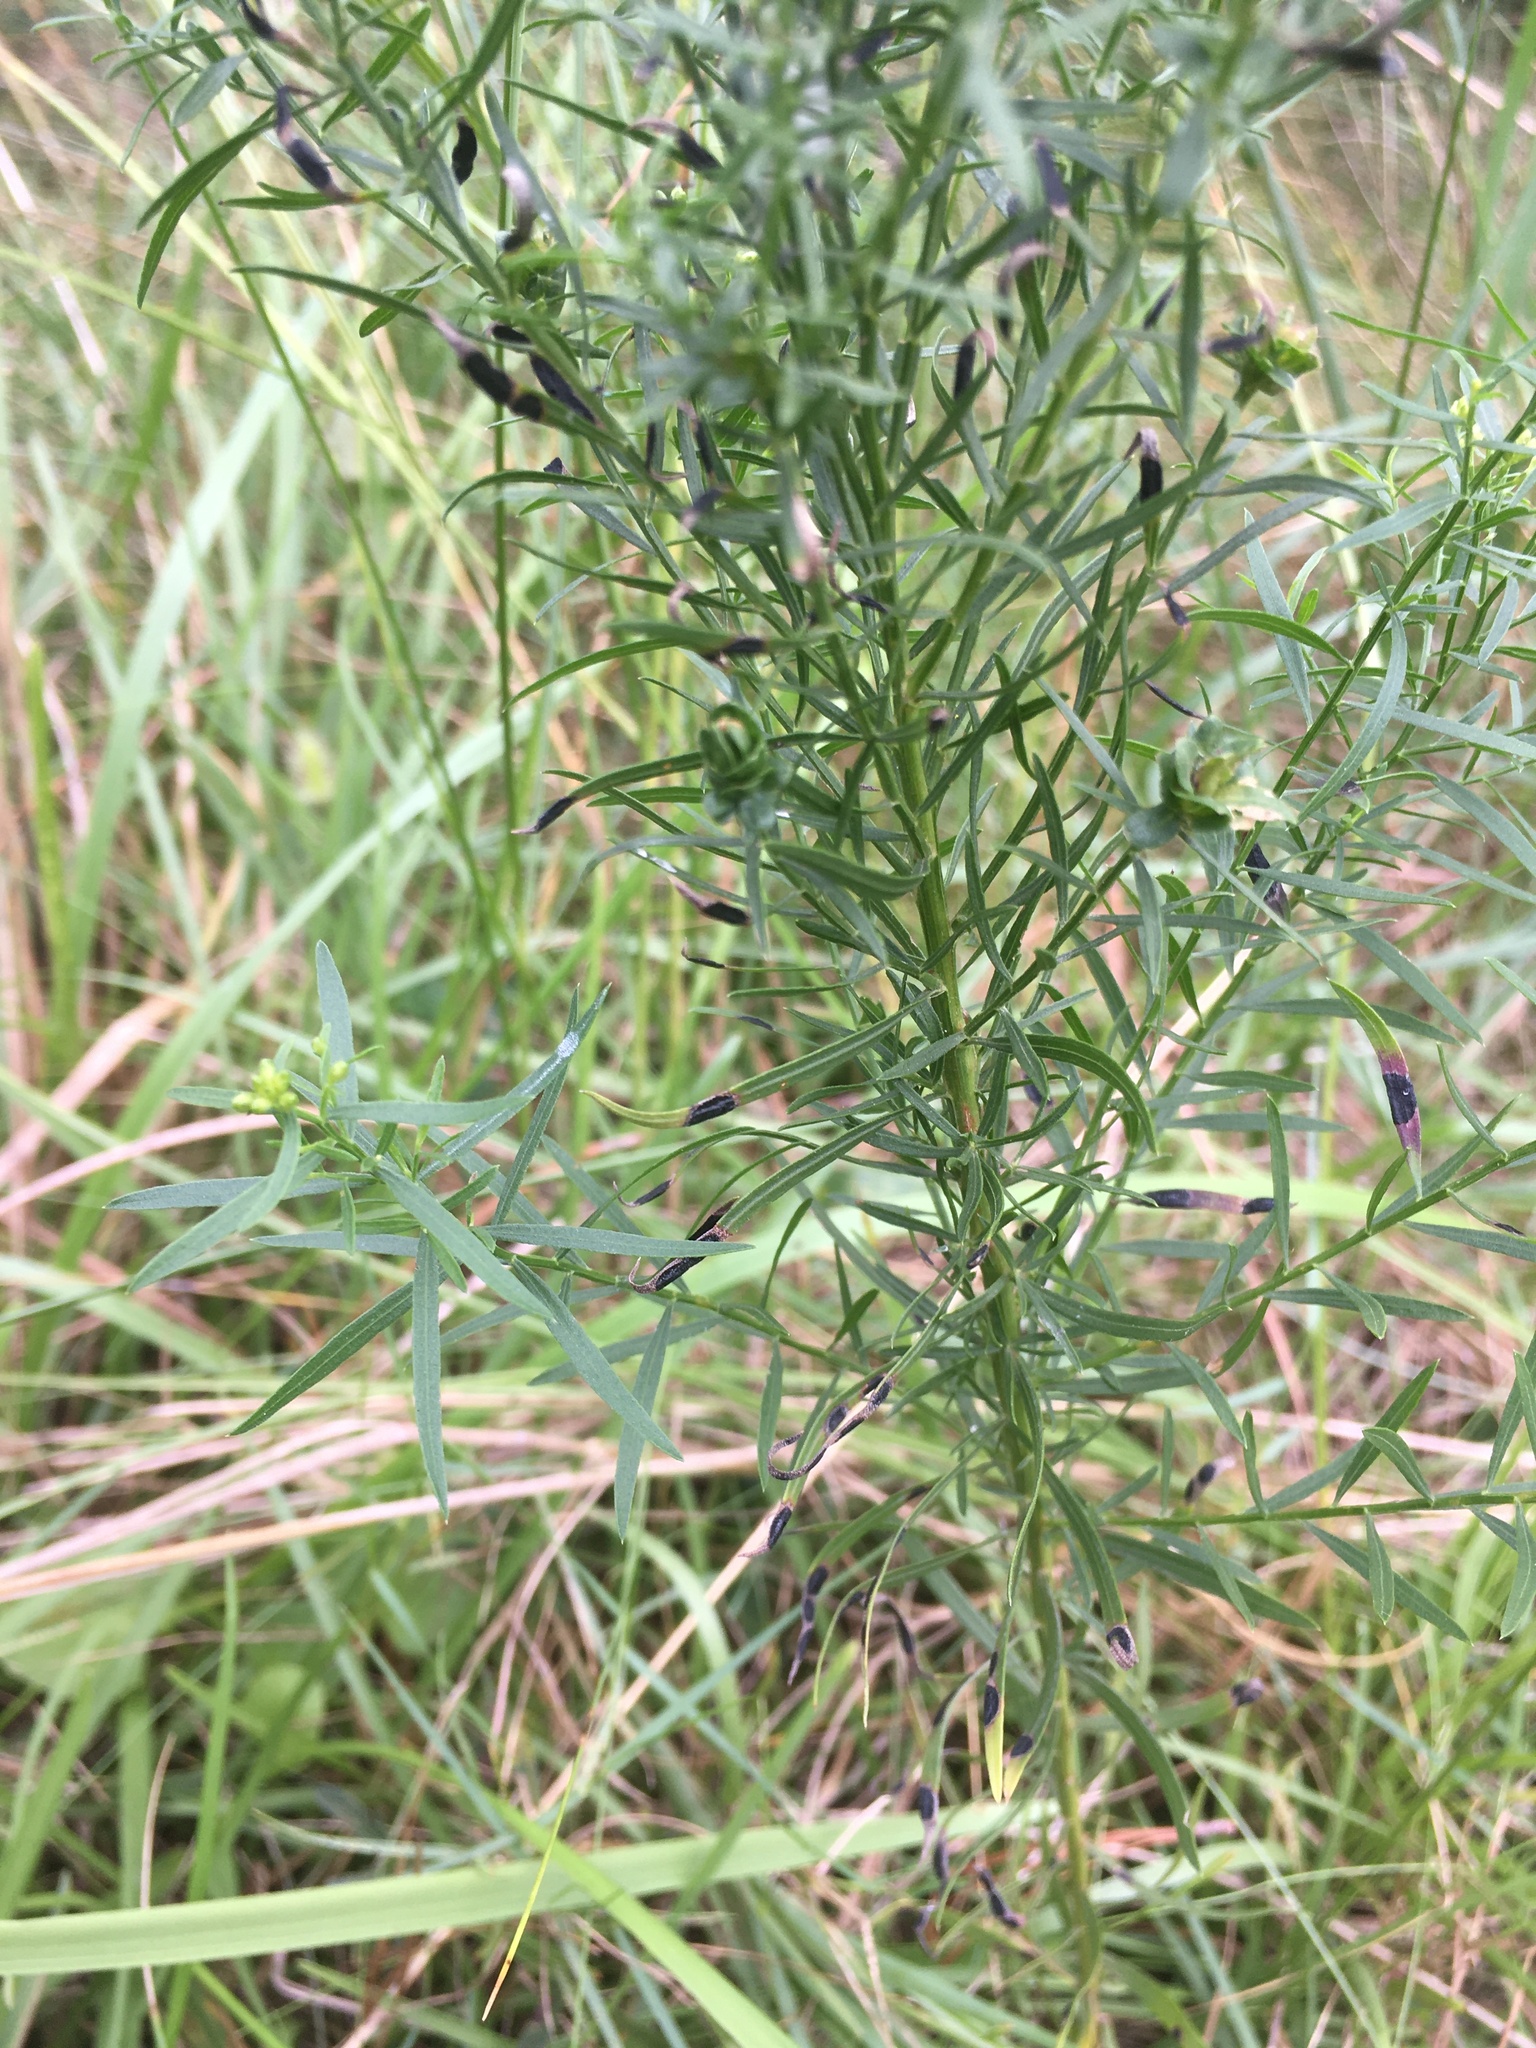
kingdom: Animalia
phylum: Arthropoda
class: Insecta
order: Diptera
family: Cecidomyiidae
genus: Asteromyia
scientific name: Asteromyia euthamiae
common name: Euthamia leaf gall midge
